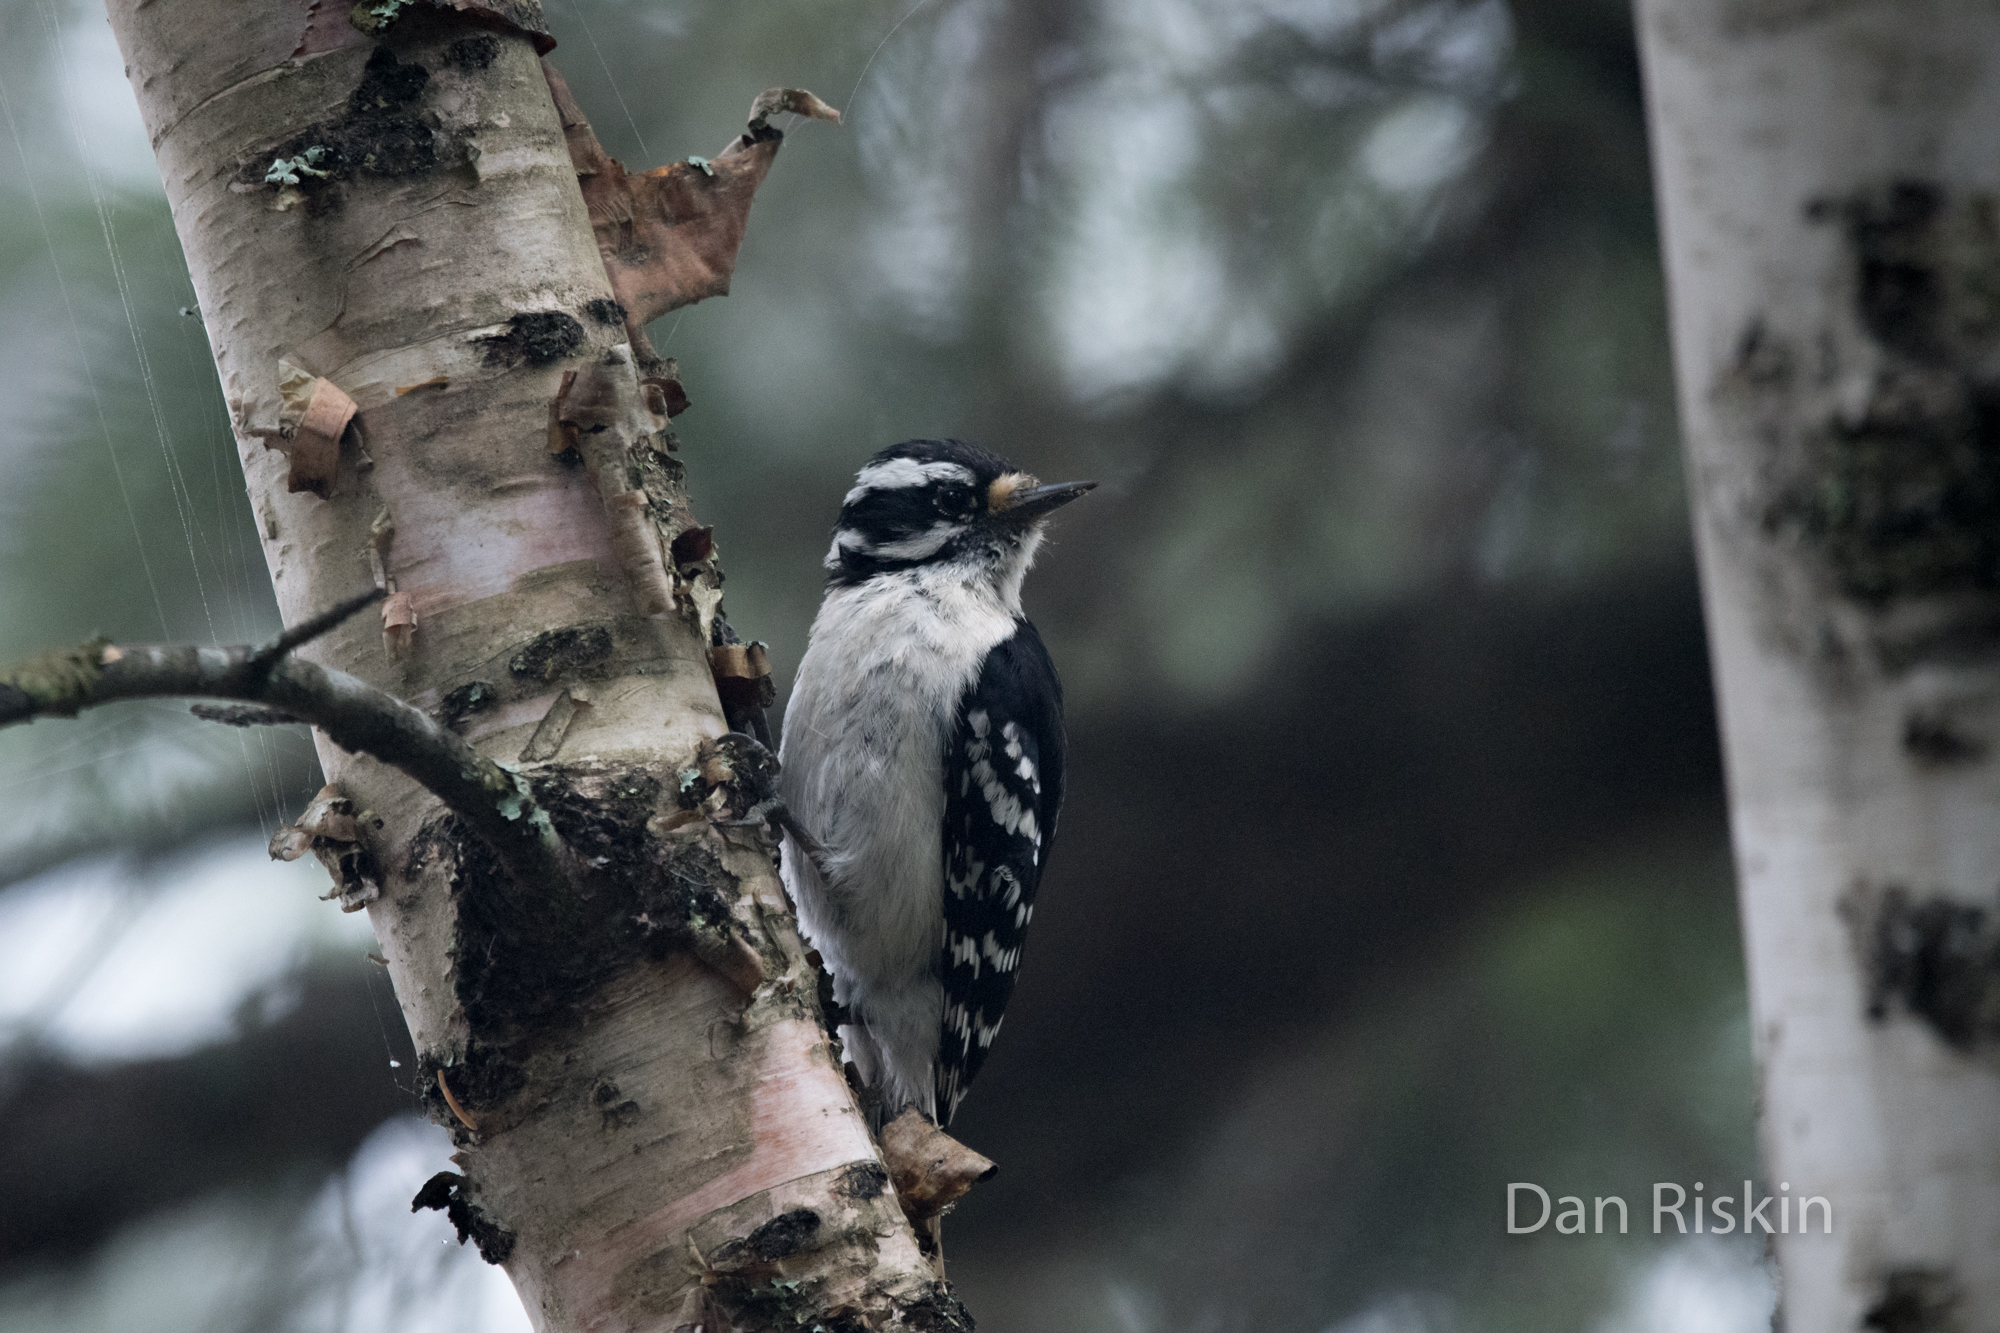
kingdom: Animalia
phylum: Chordata
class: Aves
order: Piciformes
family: Picidae
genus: Dryobates
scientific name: Dryobates pubescens
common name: Downy woodpecker
